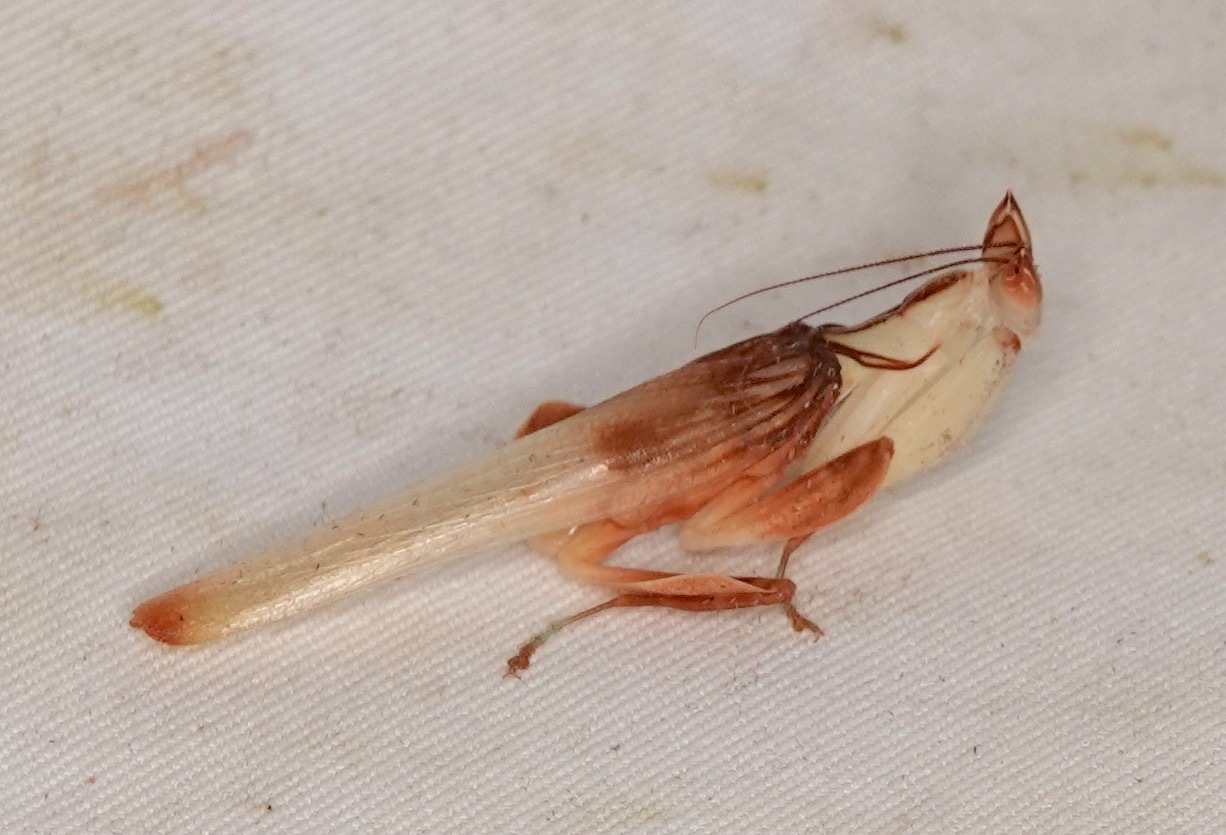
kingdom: Animalia
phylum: Arthropoda
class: Insecta
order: Mantodea
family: Hymenopodidae
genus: Hymenopus
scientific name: Hymenopus coronatus
